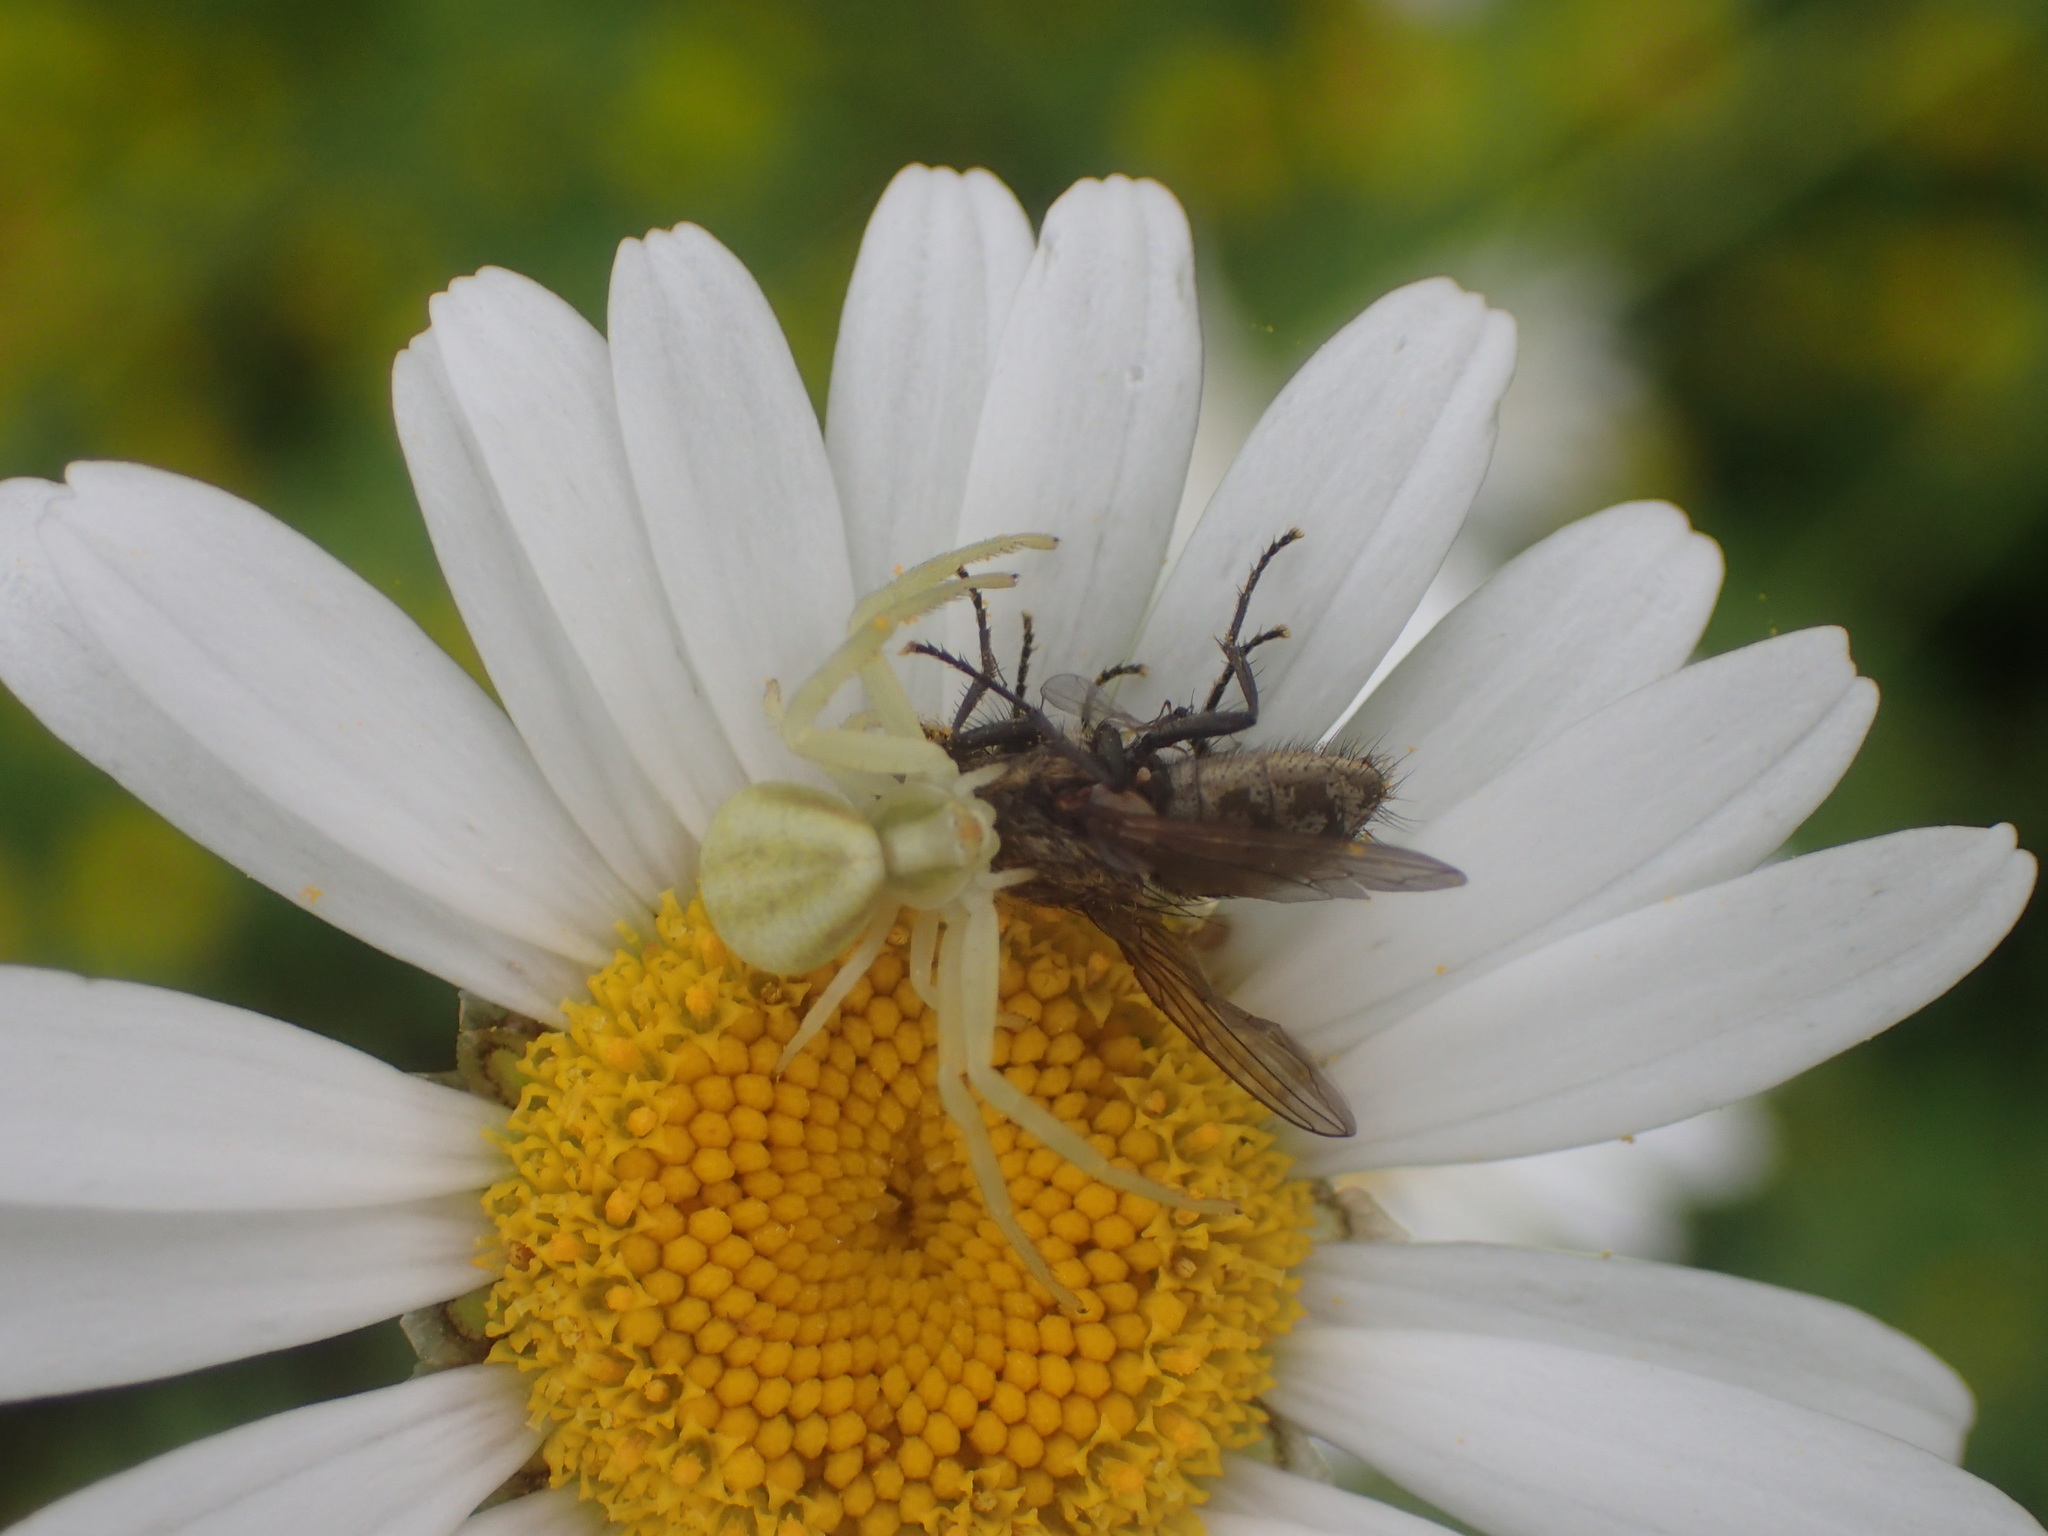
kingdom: Animalia
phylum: Arthropoda
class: Arachnida
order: Araneae
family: Thomisidae
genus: Misumena
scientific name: Misumena vatia
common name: Goldenrod crab spider
